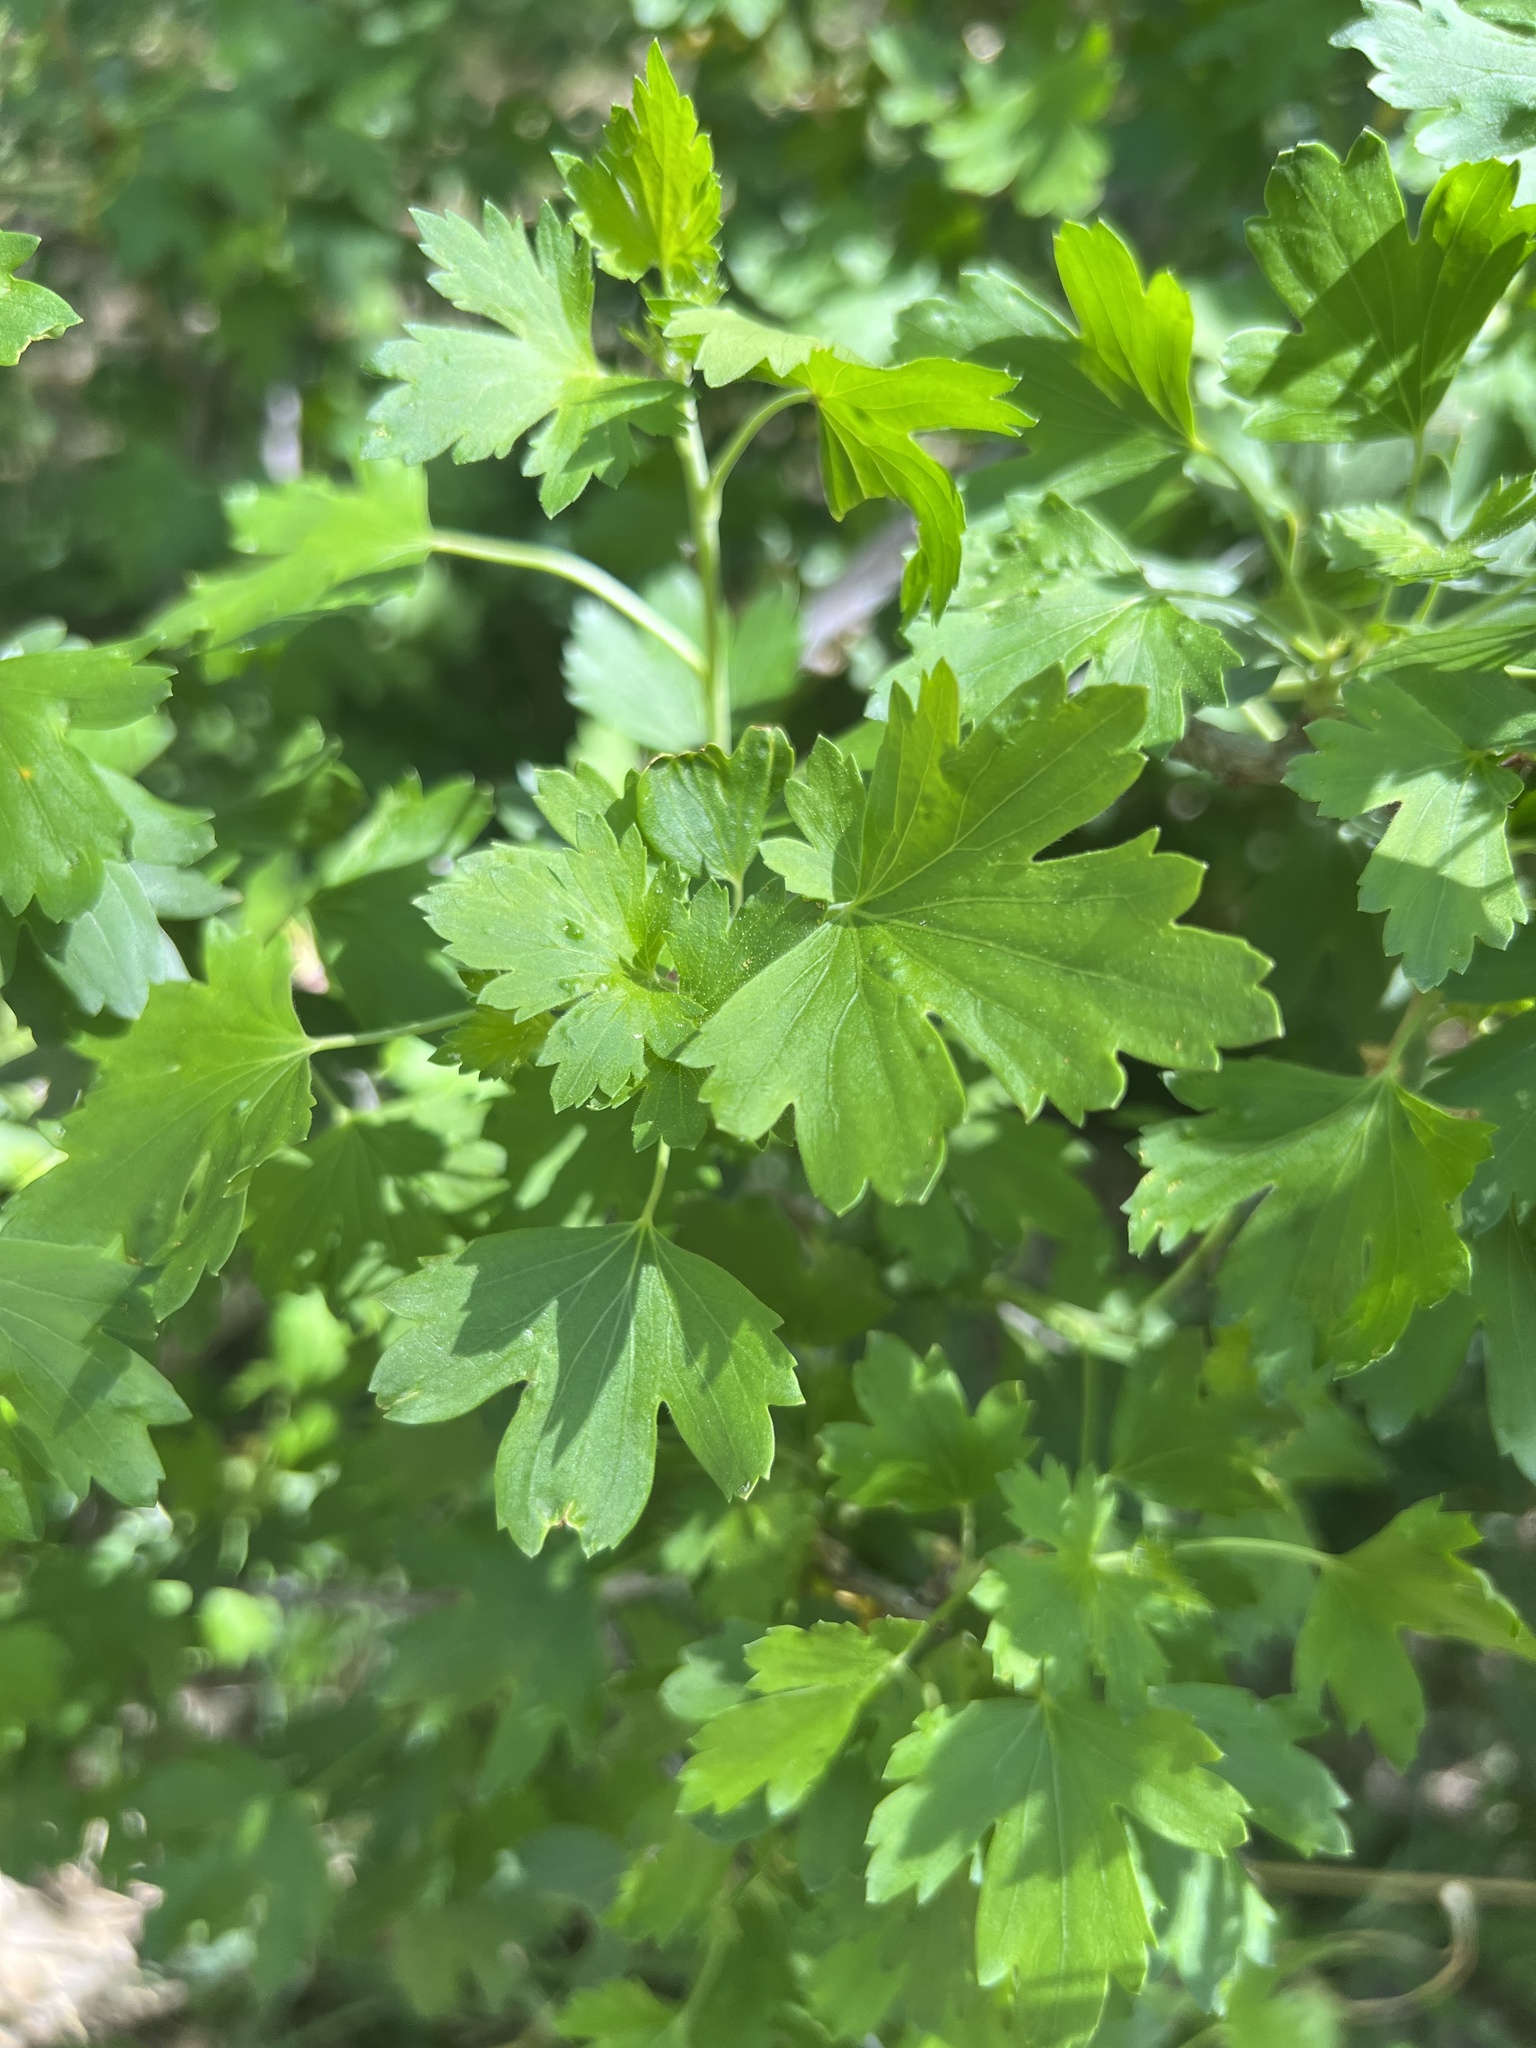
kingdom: Plantae
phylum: Tracheophyta
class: Magnoliopsida
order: Saxifragales
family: Grossulariaceae
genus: Ribes
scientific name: Ribes aureum
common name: Golden currant
